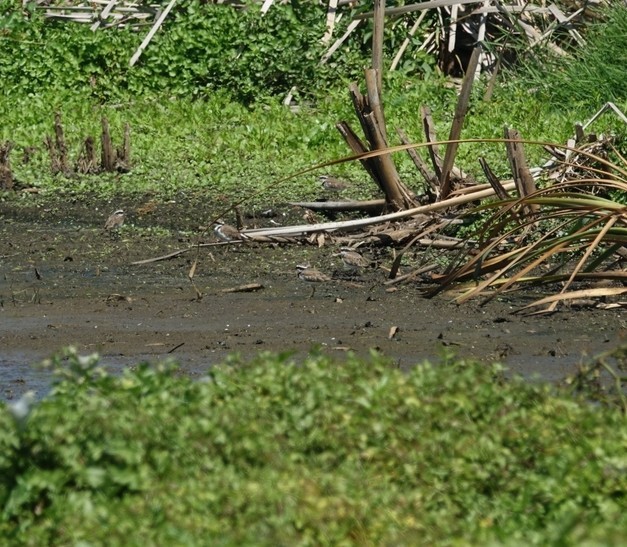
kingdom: Animalia
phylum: Chordata
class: Aves
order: Charadriiformes
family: Charadriidae
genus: Elseyornis
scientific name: Elseyornis melanops
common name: Black-fronted dotterel
